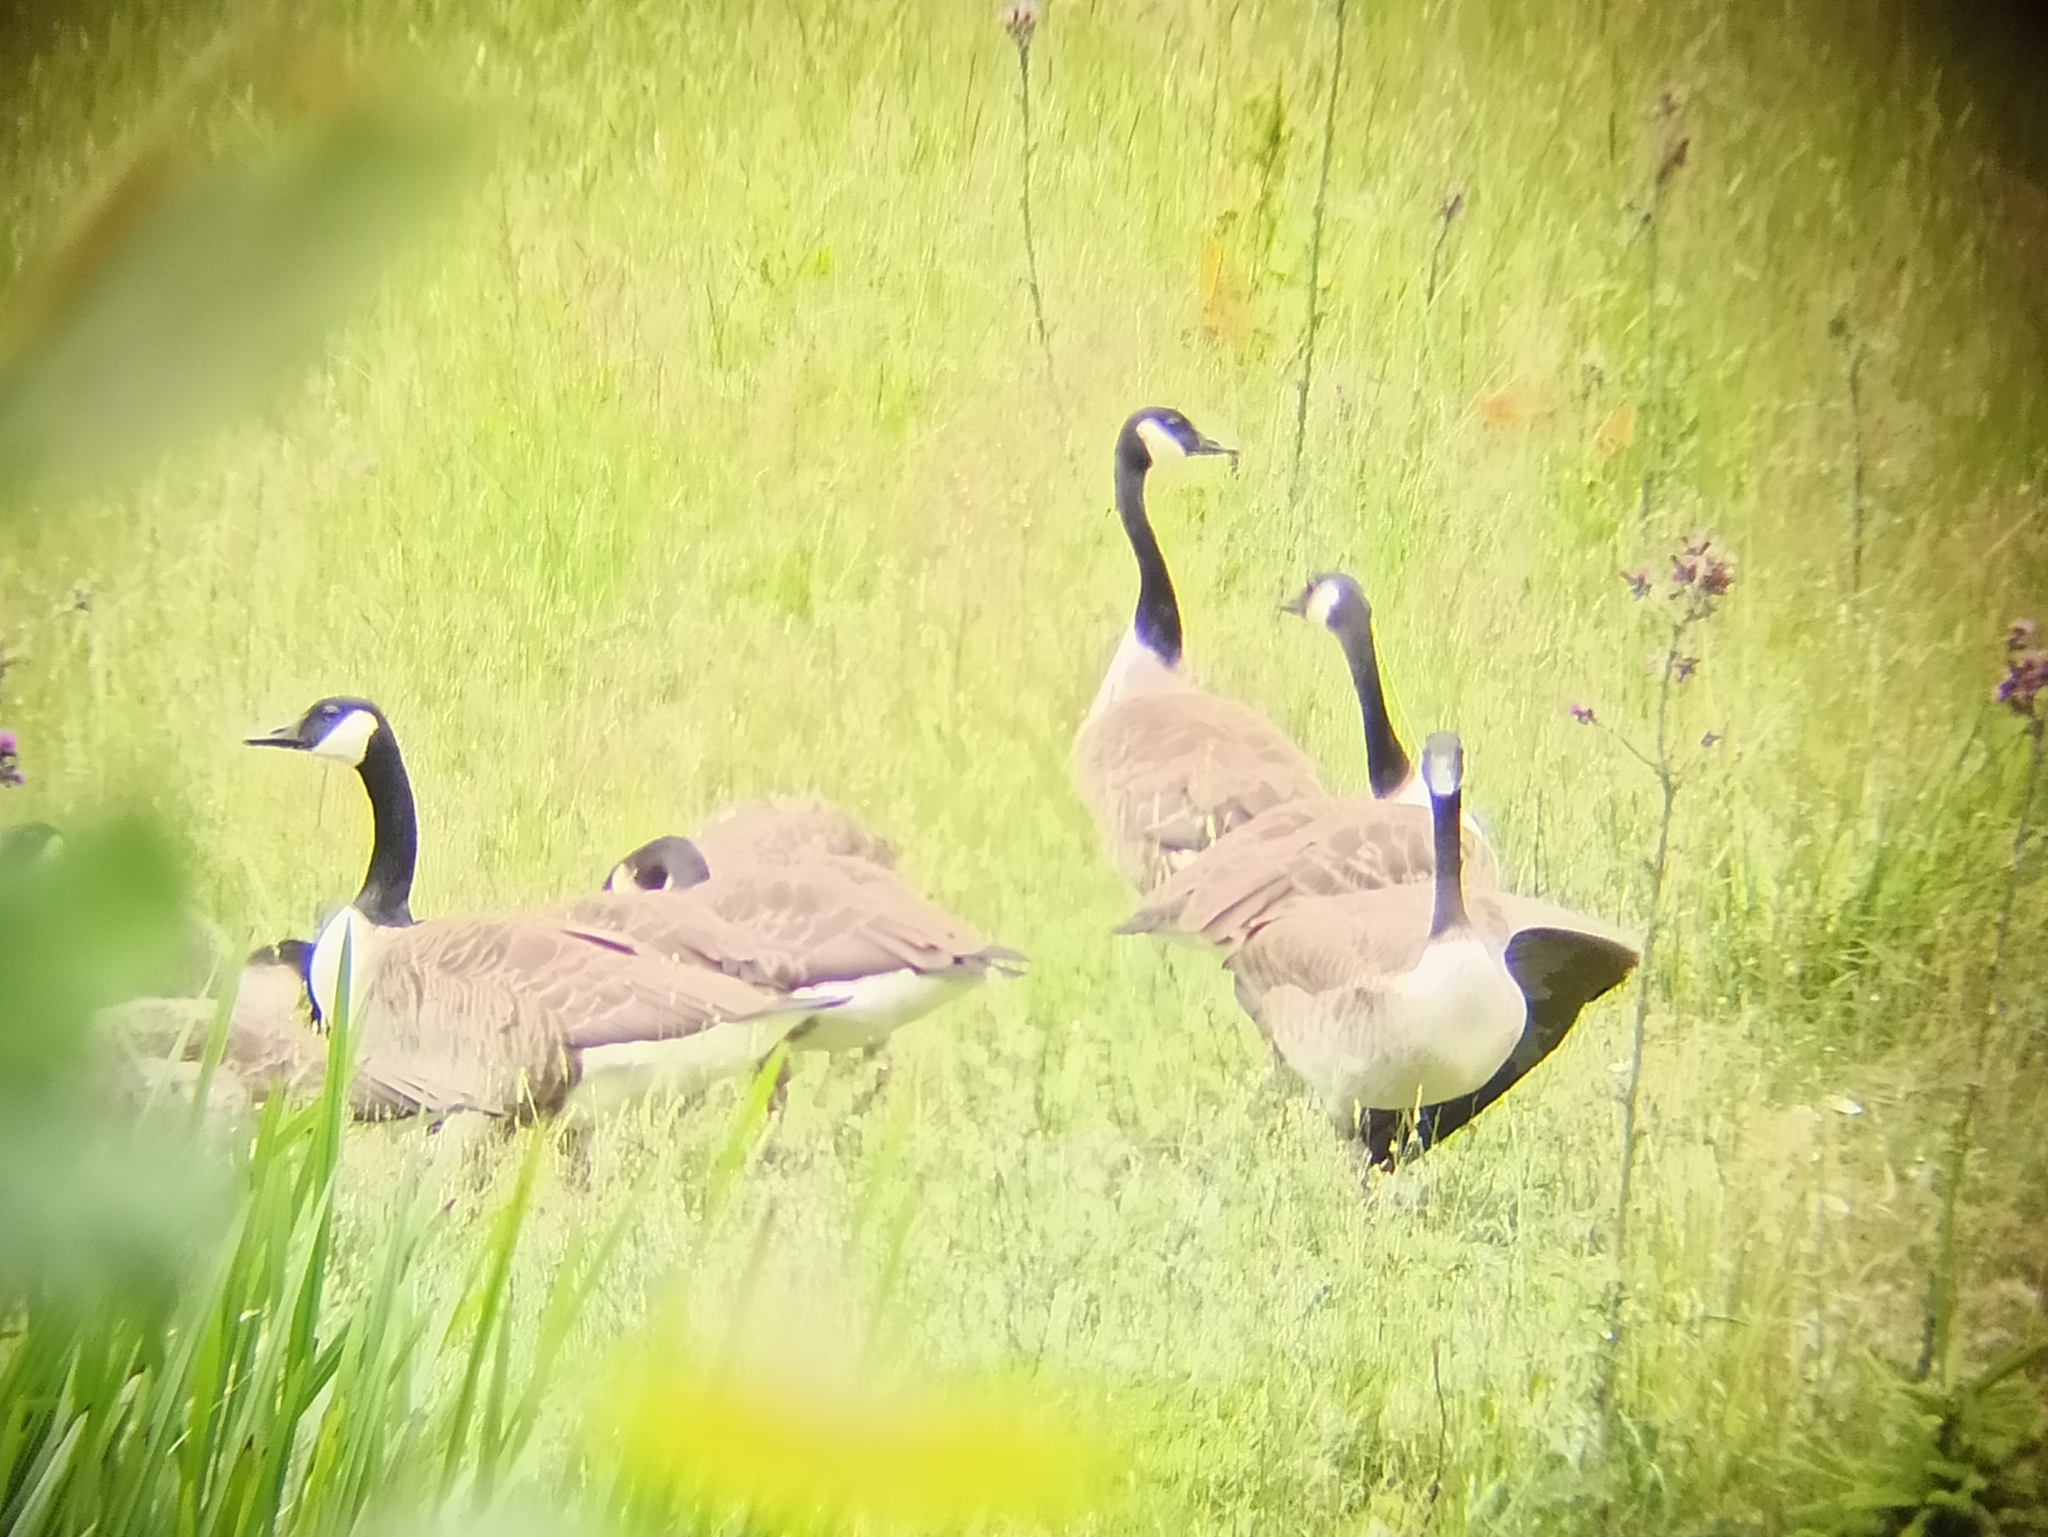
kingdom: Animalia
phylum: Chordata
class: Aves
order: Anseriformes
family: Anatidae
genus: Branta
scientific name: Branta canadensis
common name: Canada goose
